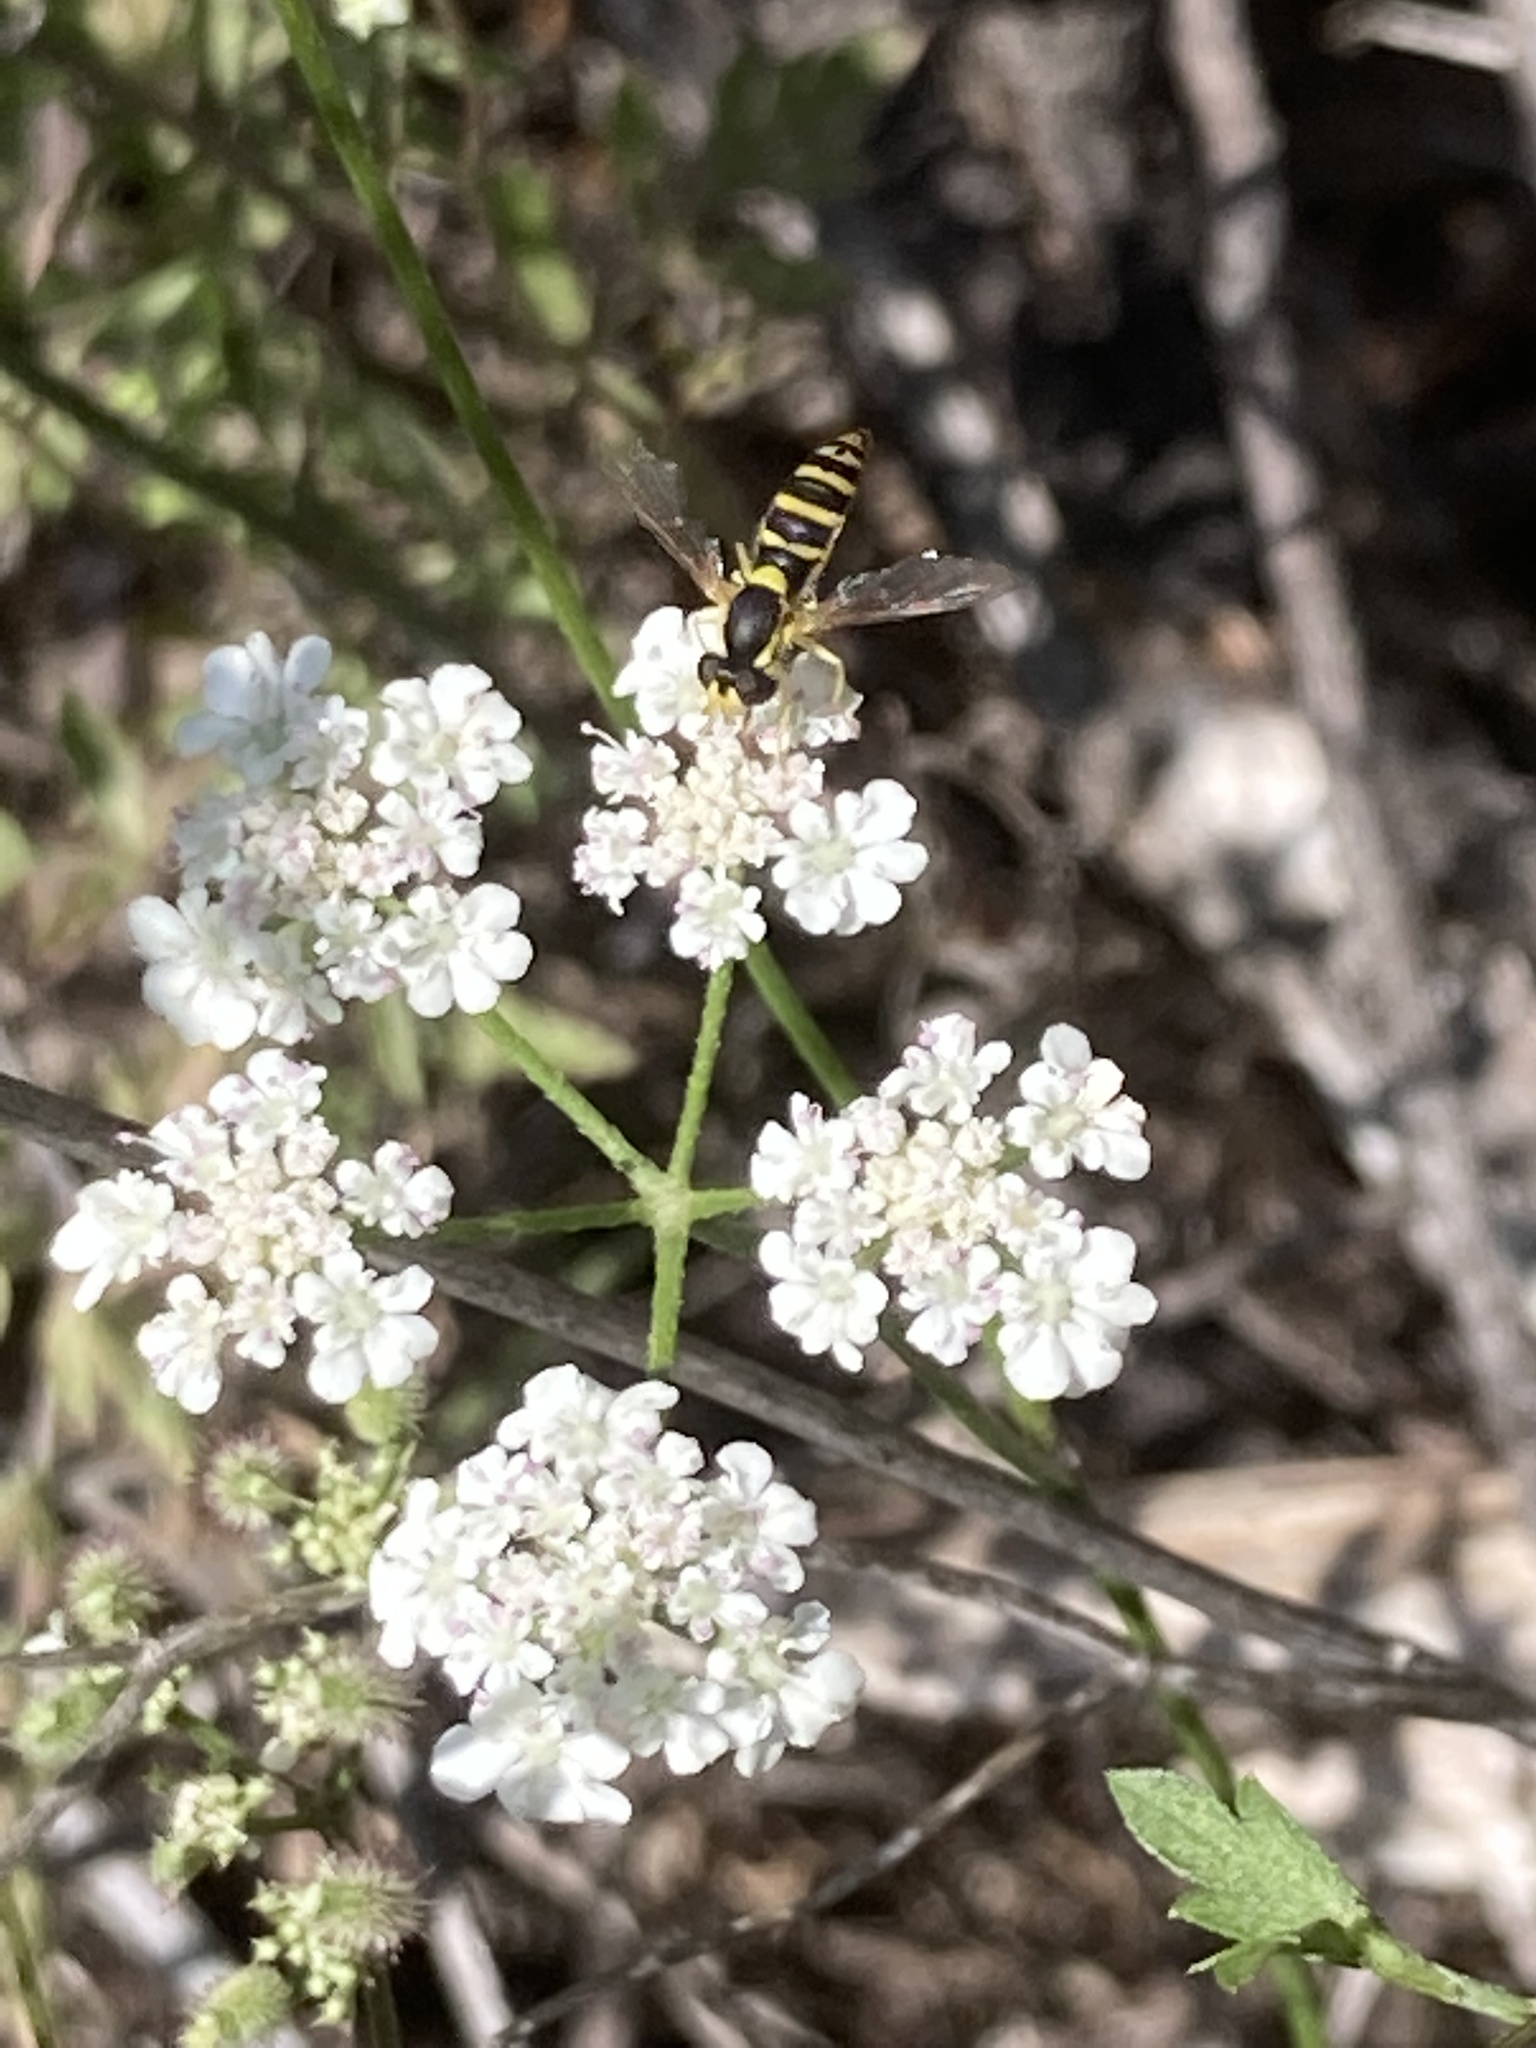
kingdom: Animalia
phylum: Arthropoda
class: Insecta
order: Diptera
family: Syrphidae
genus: Sphaerophoria
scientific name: Sphaerophoria
